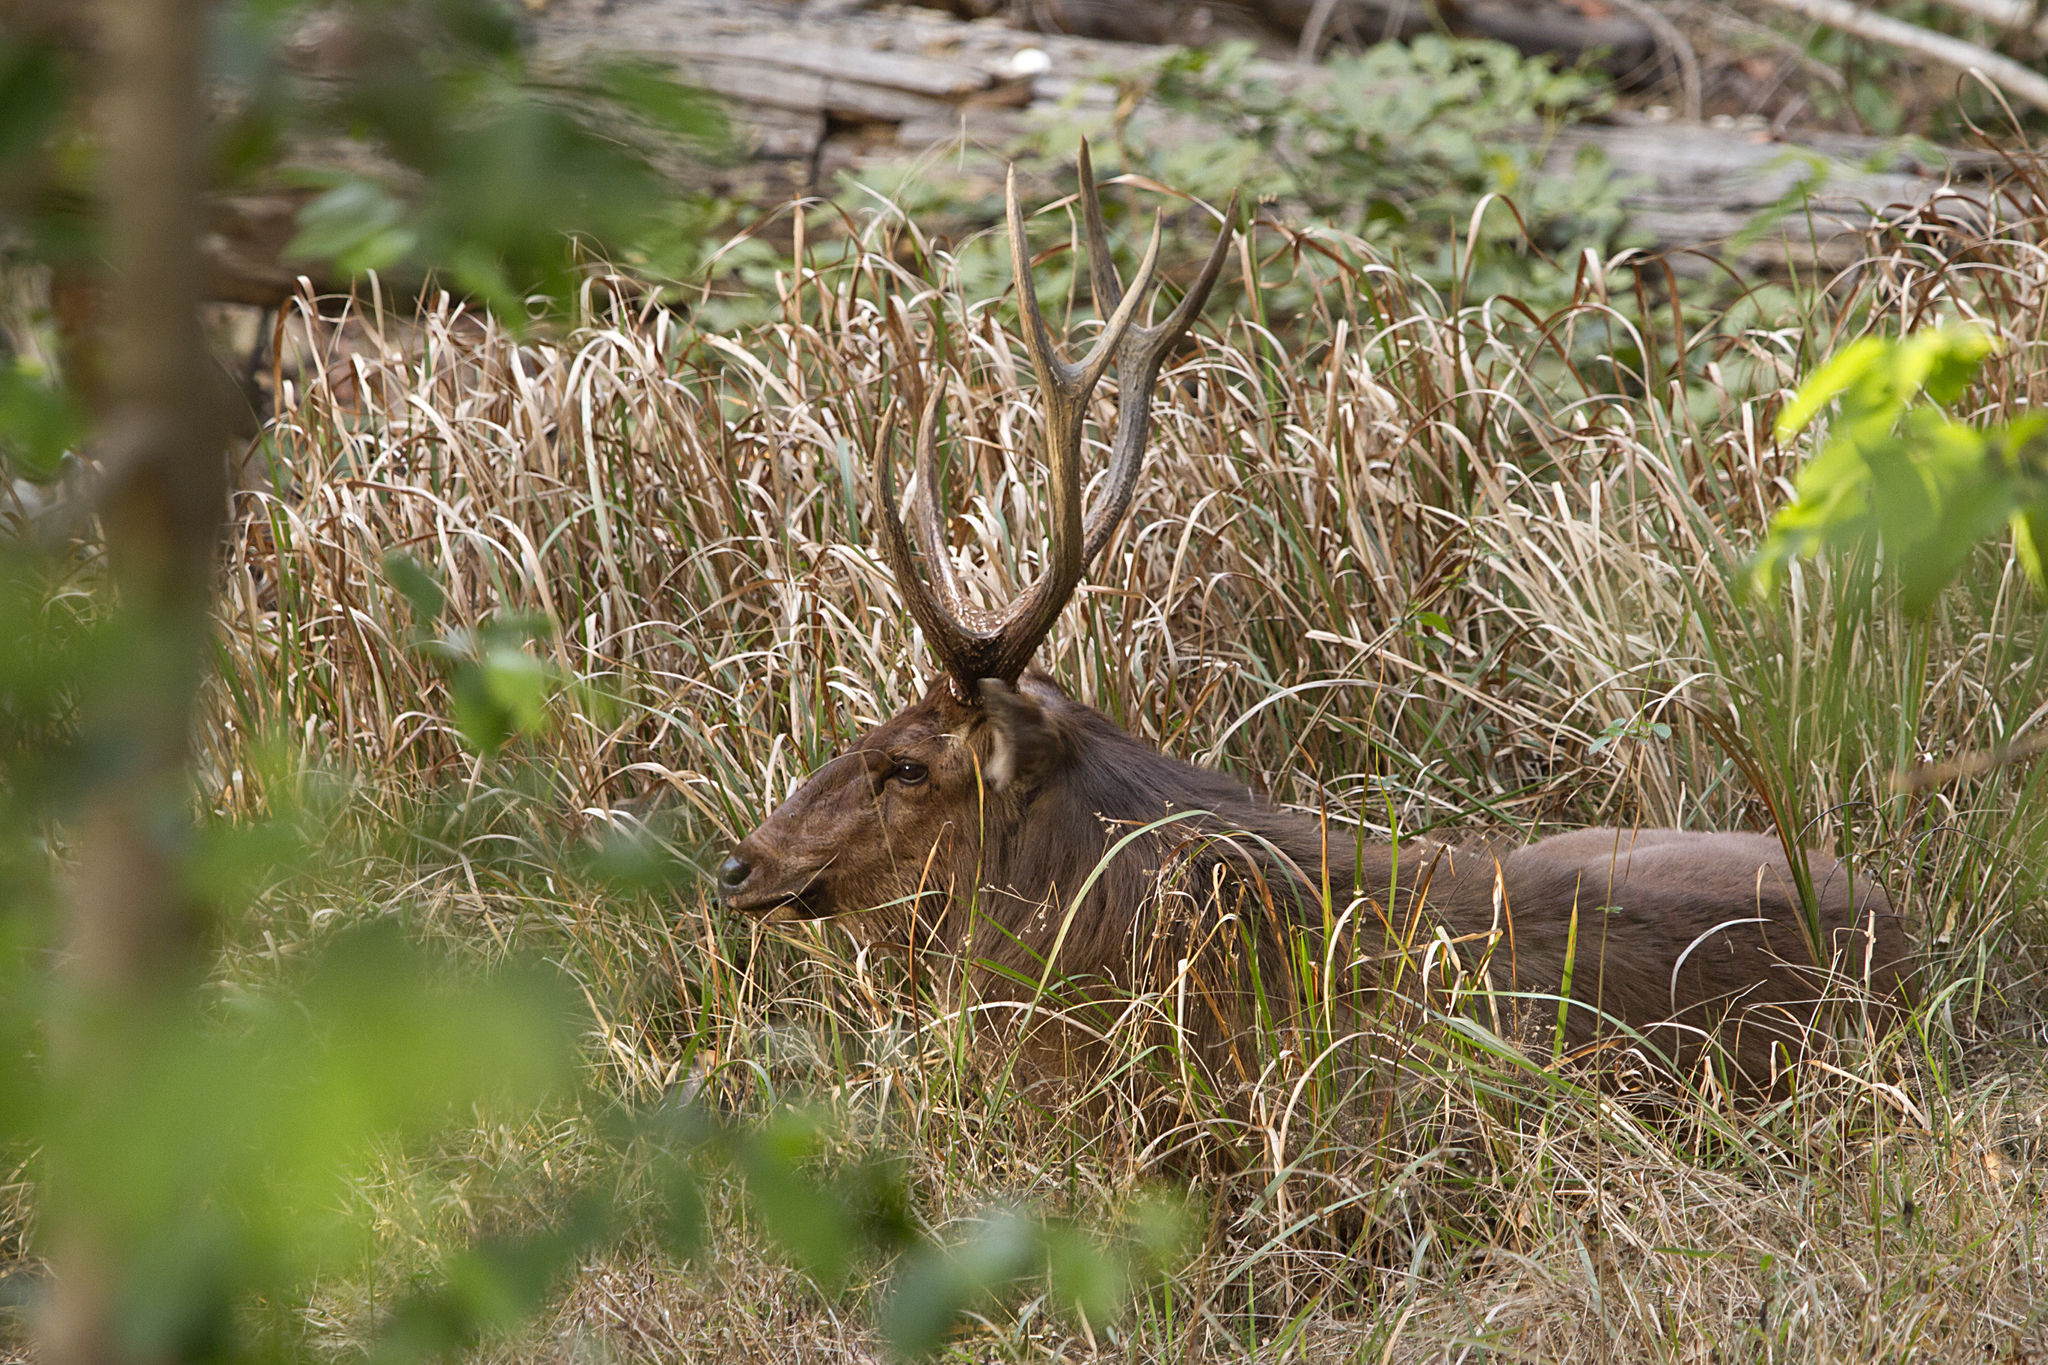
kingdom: Animalia
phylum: Chordata
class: Mammalia
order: Artiodactyla
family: Cervidae
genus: Rusa
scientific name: Rusa unicolor
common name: Sambar
